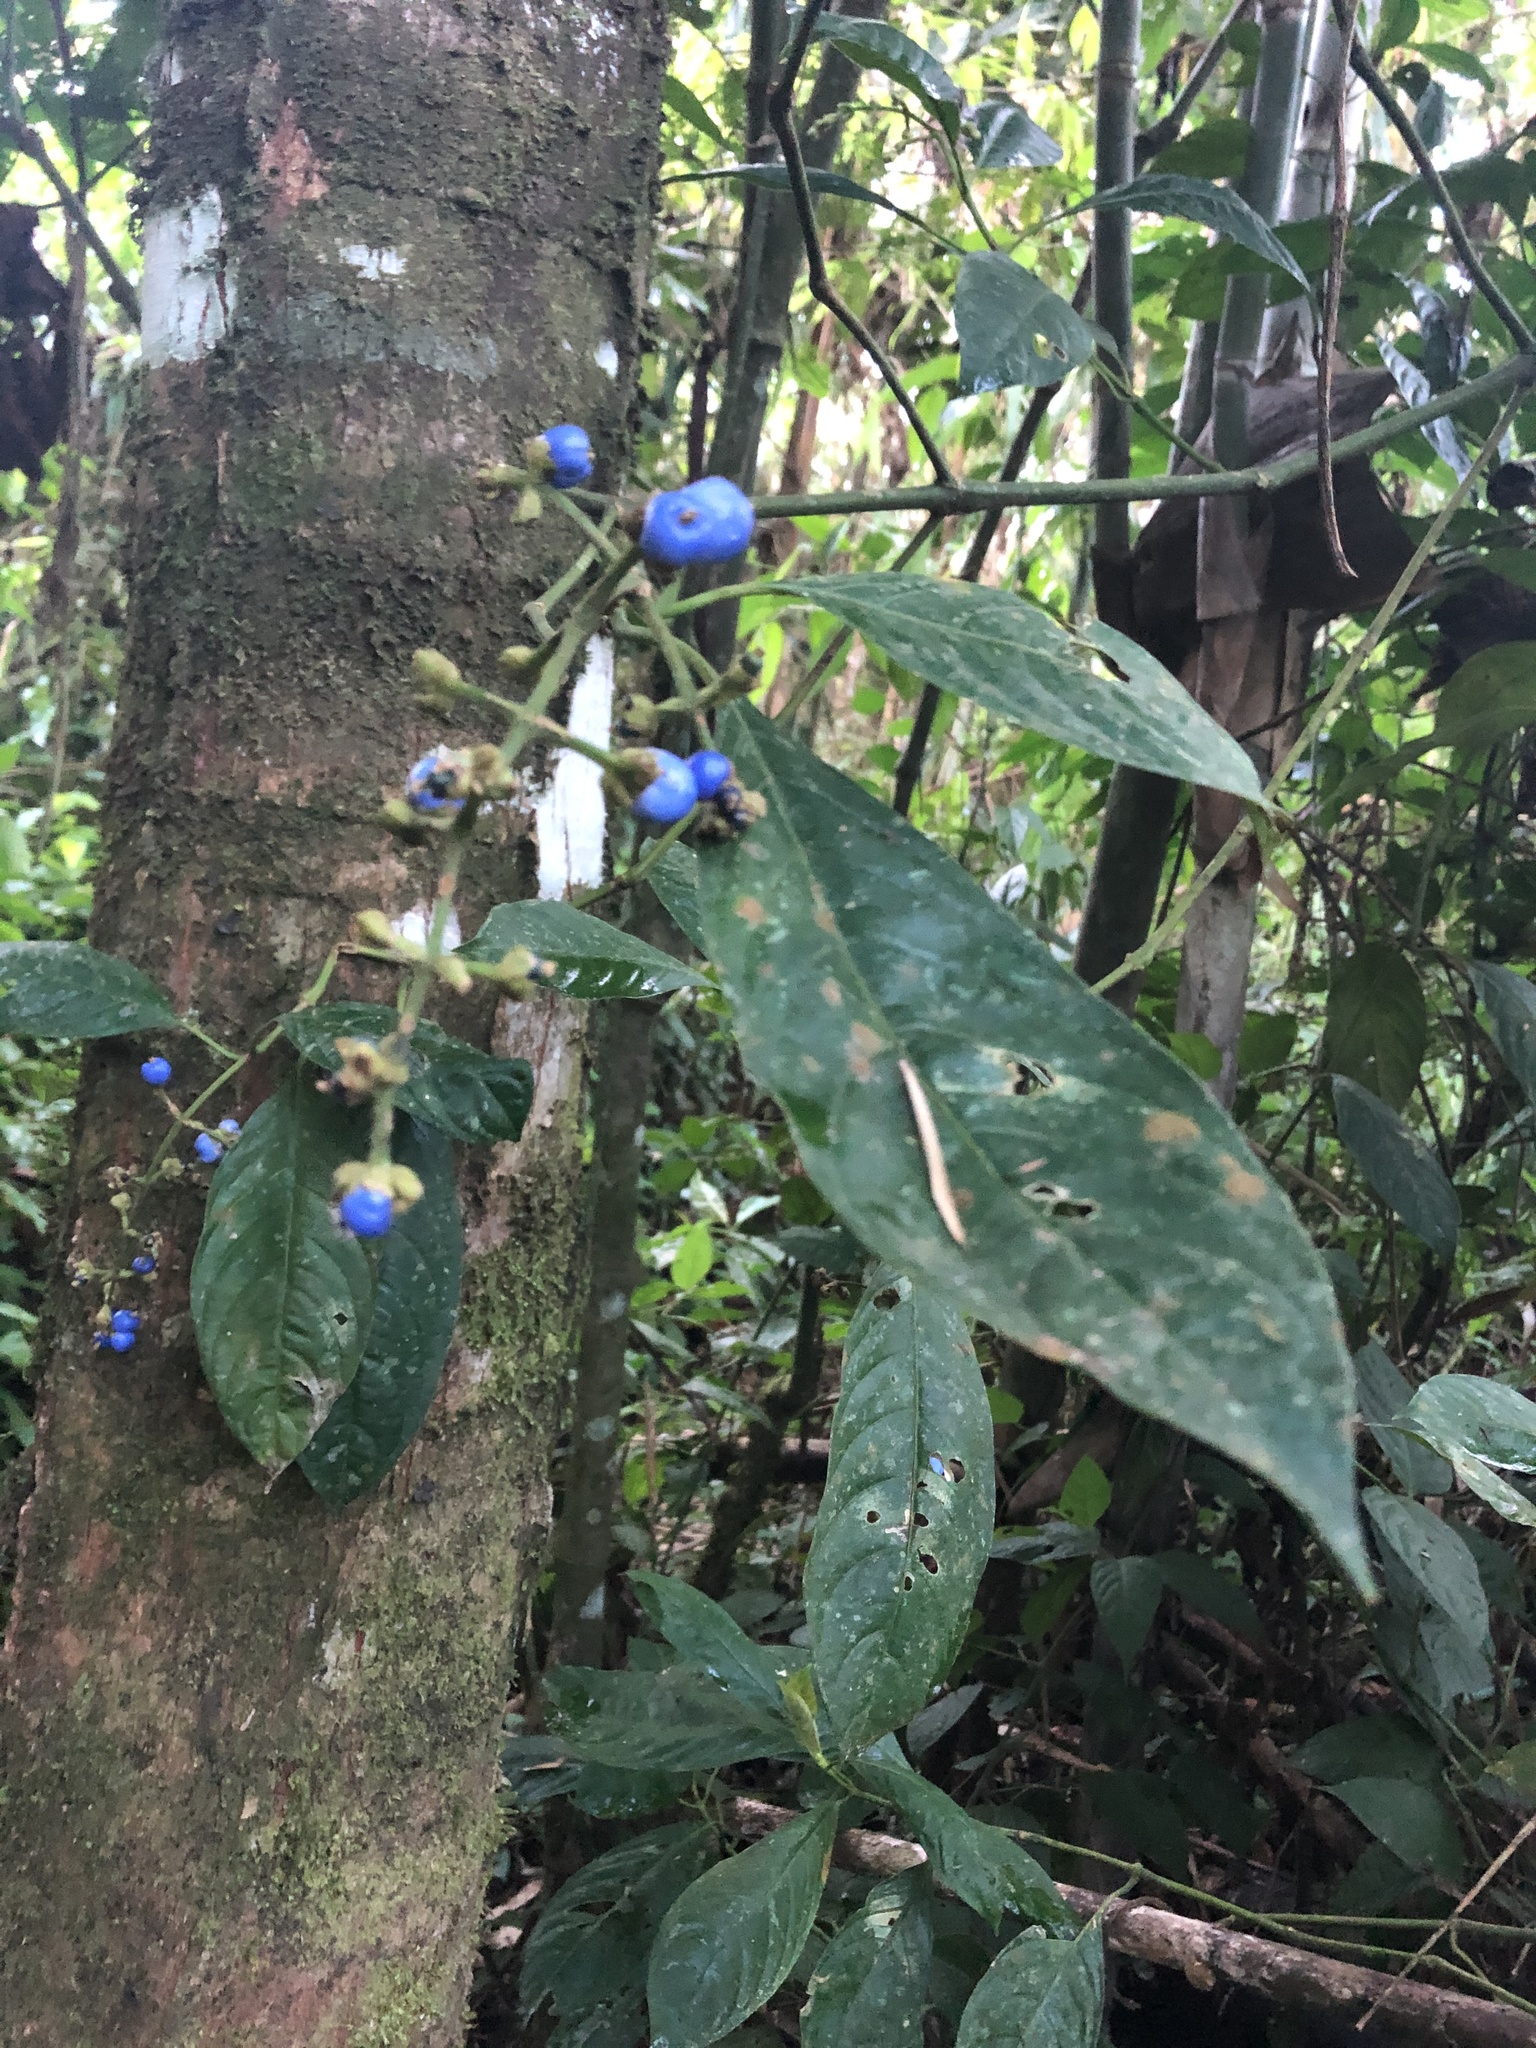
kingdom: Plantae
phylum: Tracheophyta
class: Magnoliopsida
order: Gentianales
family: Rubiaceae
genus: Palicourea
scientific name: Palicourea caerulea
